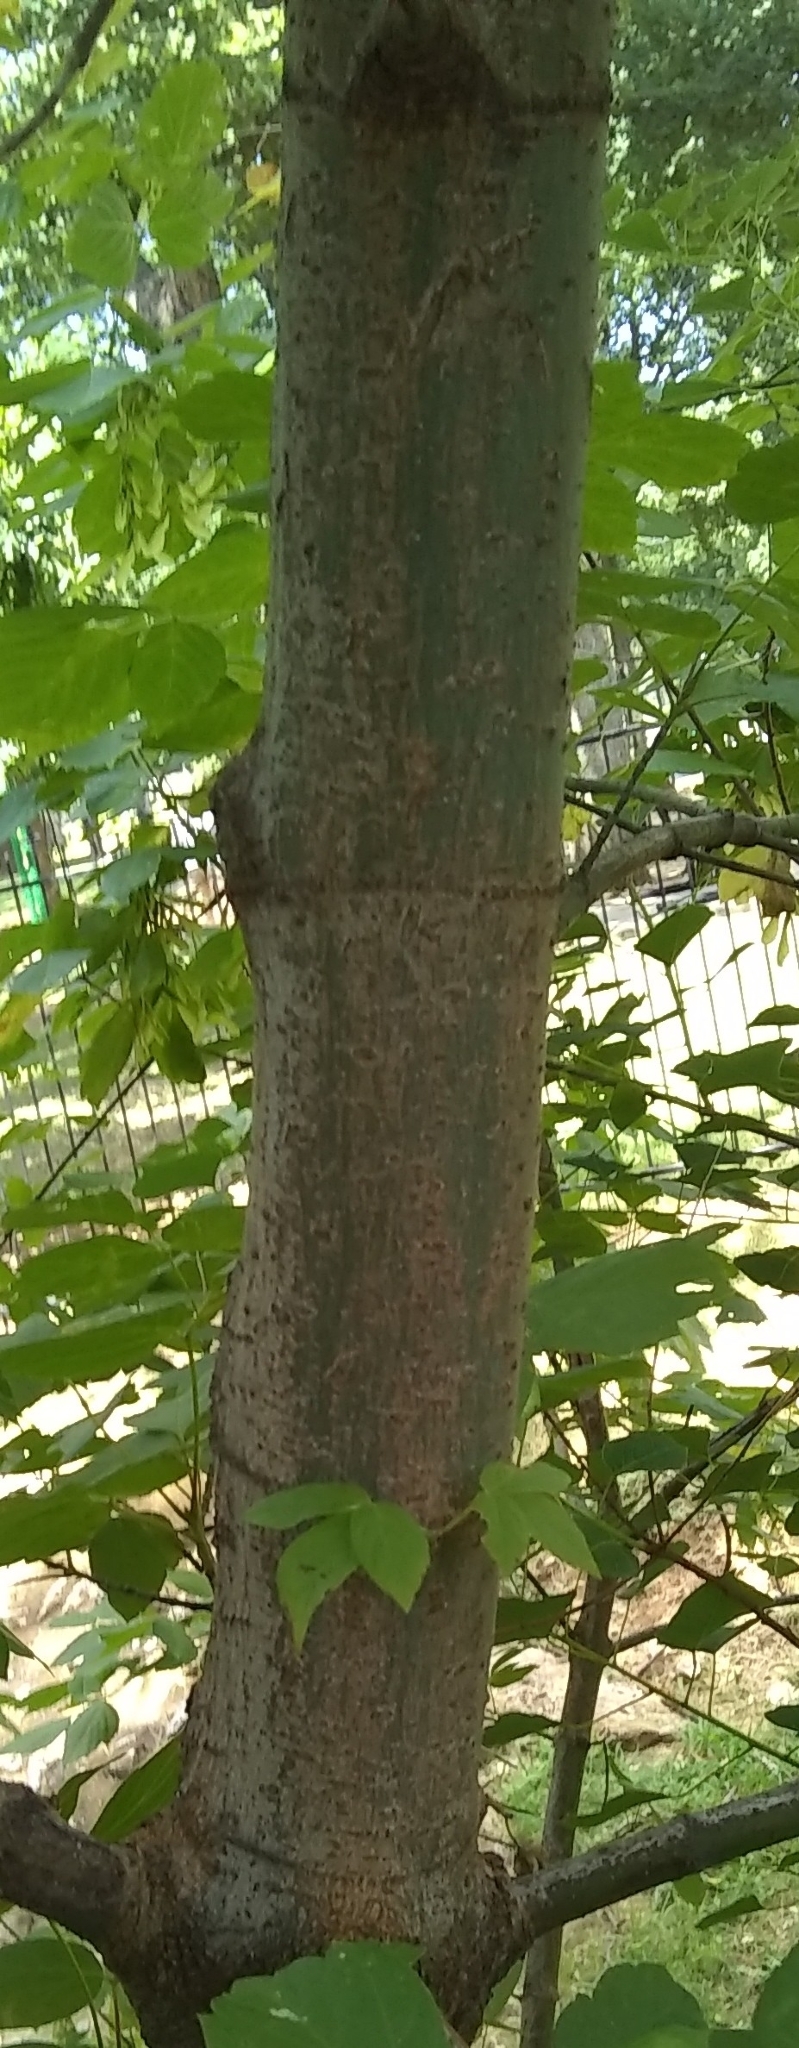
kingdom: Plantae
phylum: Tracheophyta
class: Magnoliopsida
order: Sapindales
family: Sapindaceae
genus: Acer
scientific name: Acer negundo
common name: Ashleaf maple
